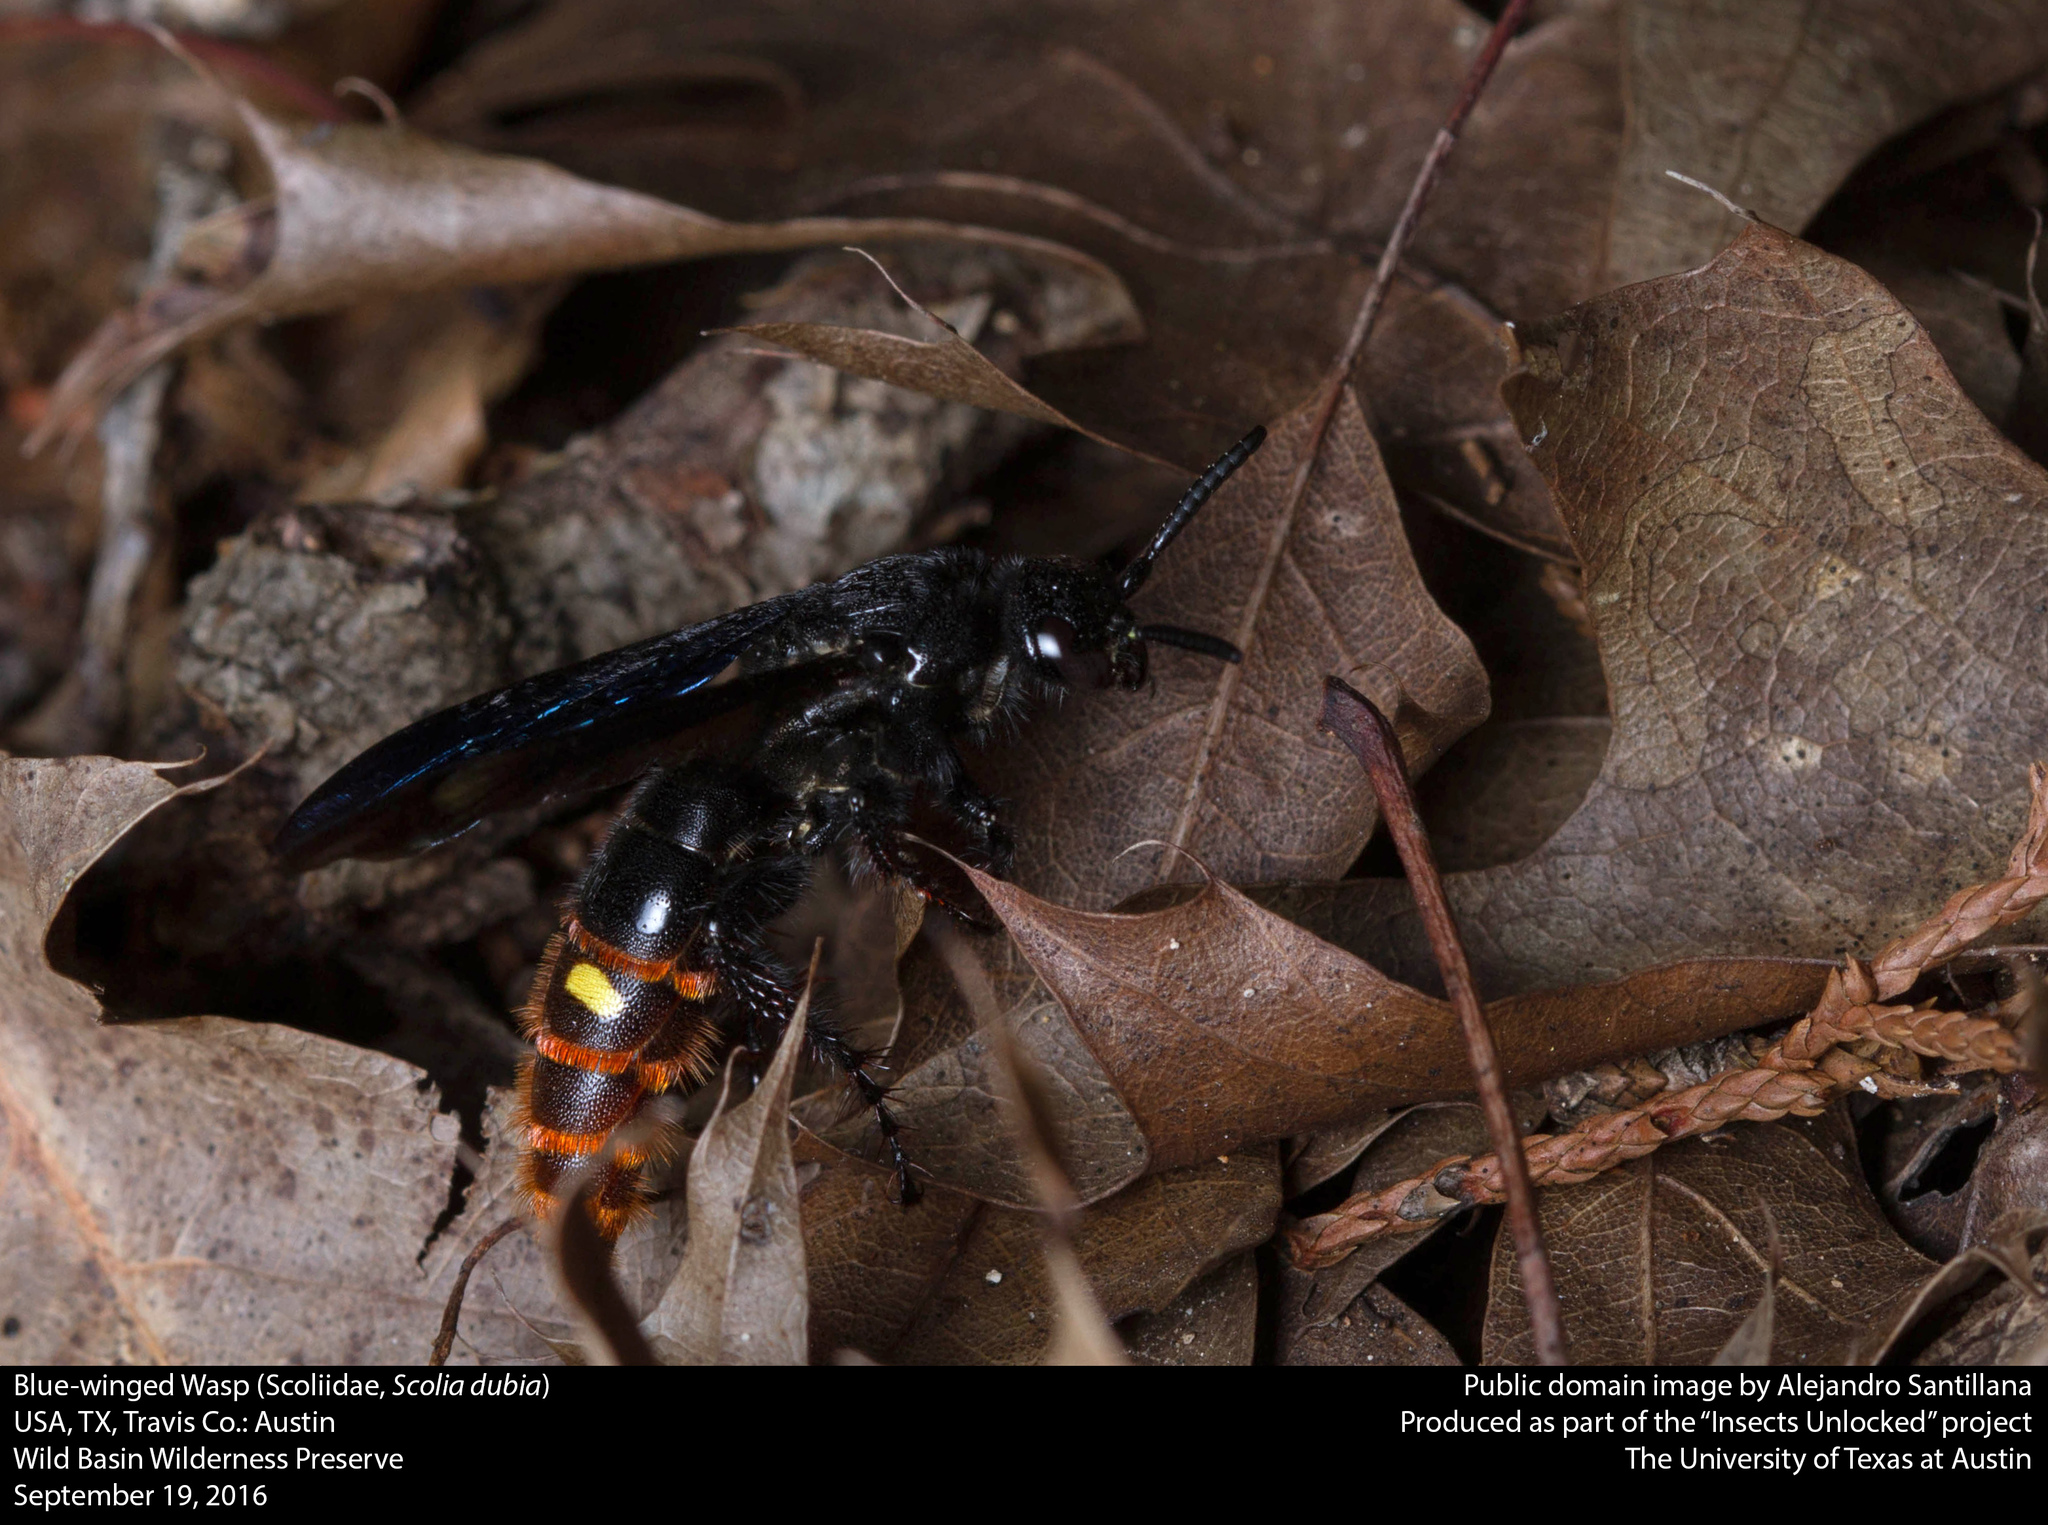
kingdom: Animalia
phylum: Arthropoda
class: Insecta
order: Hymenoptera
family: Scoliidae
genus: Scolia
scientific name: Scolia dubia
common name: Blue-winged scoliid wasp
